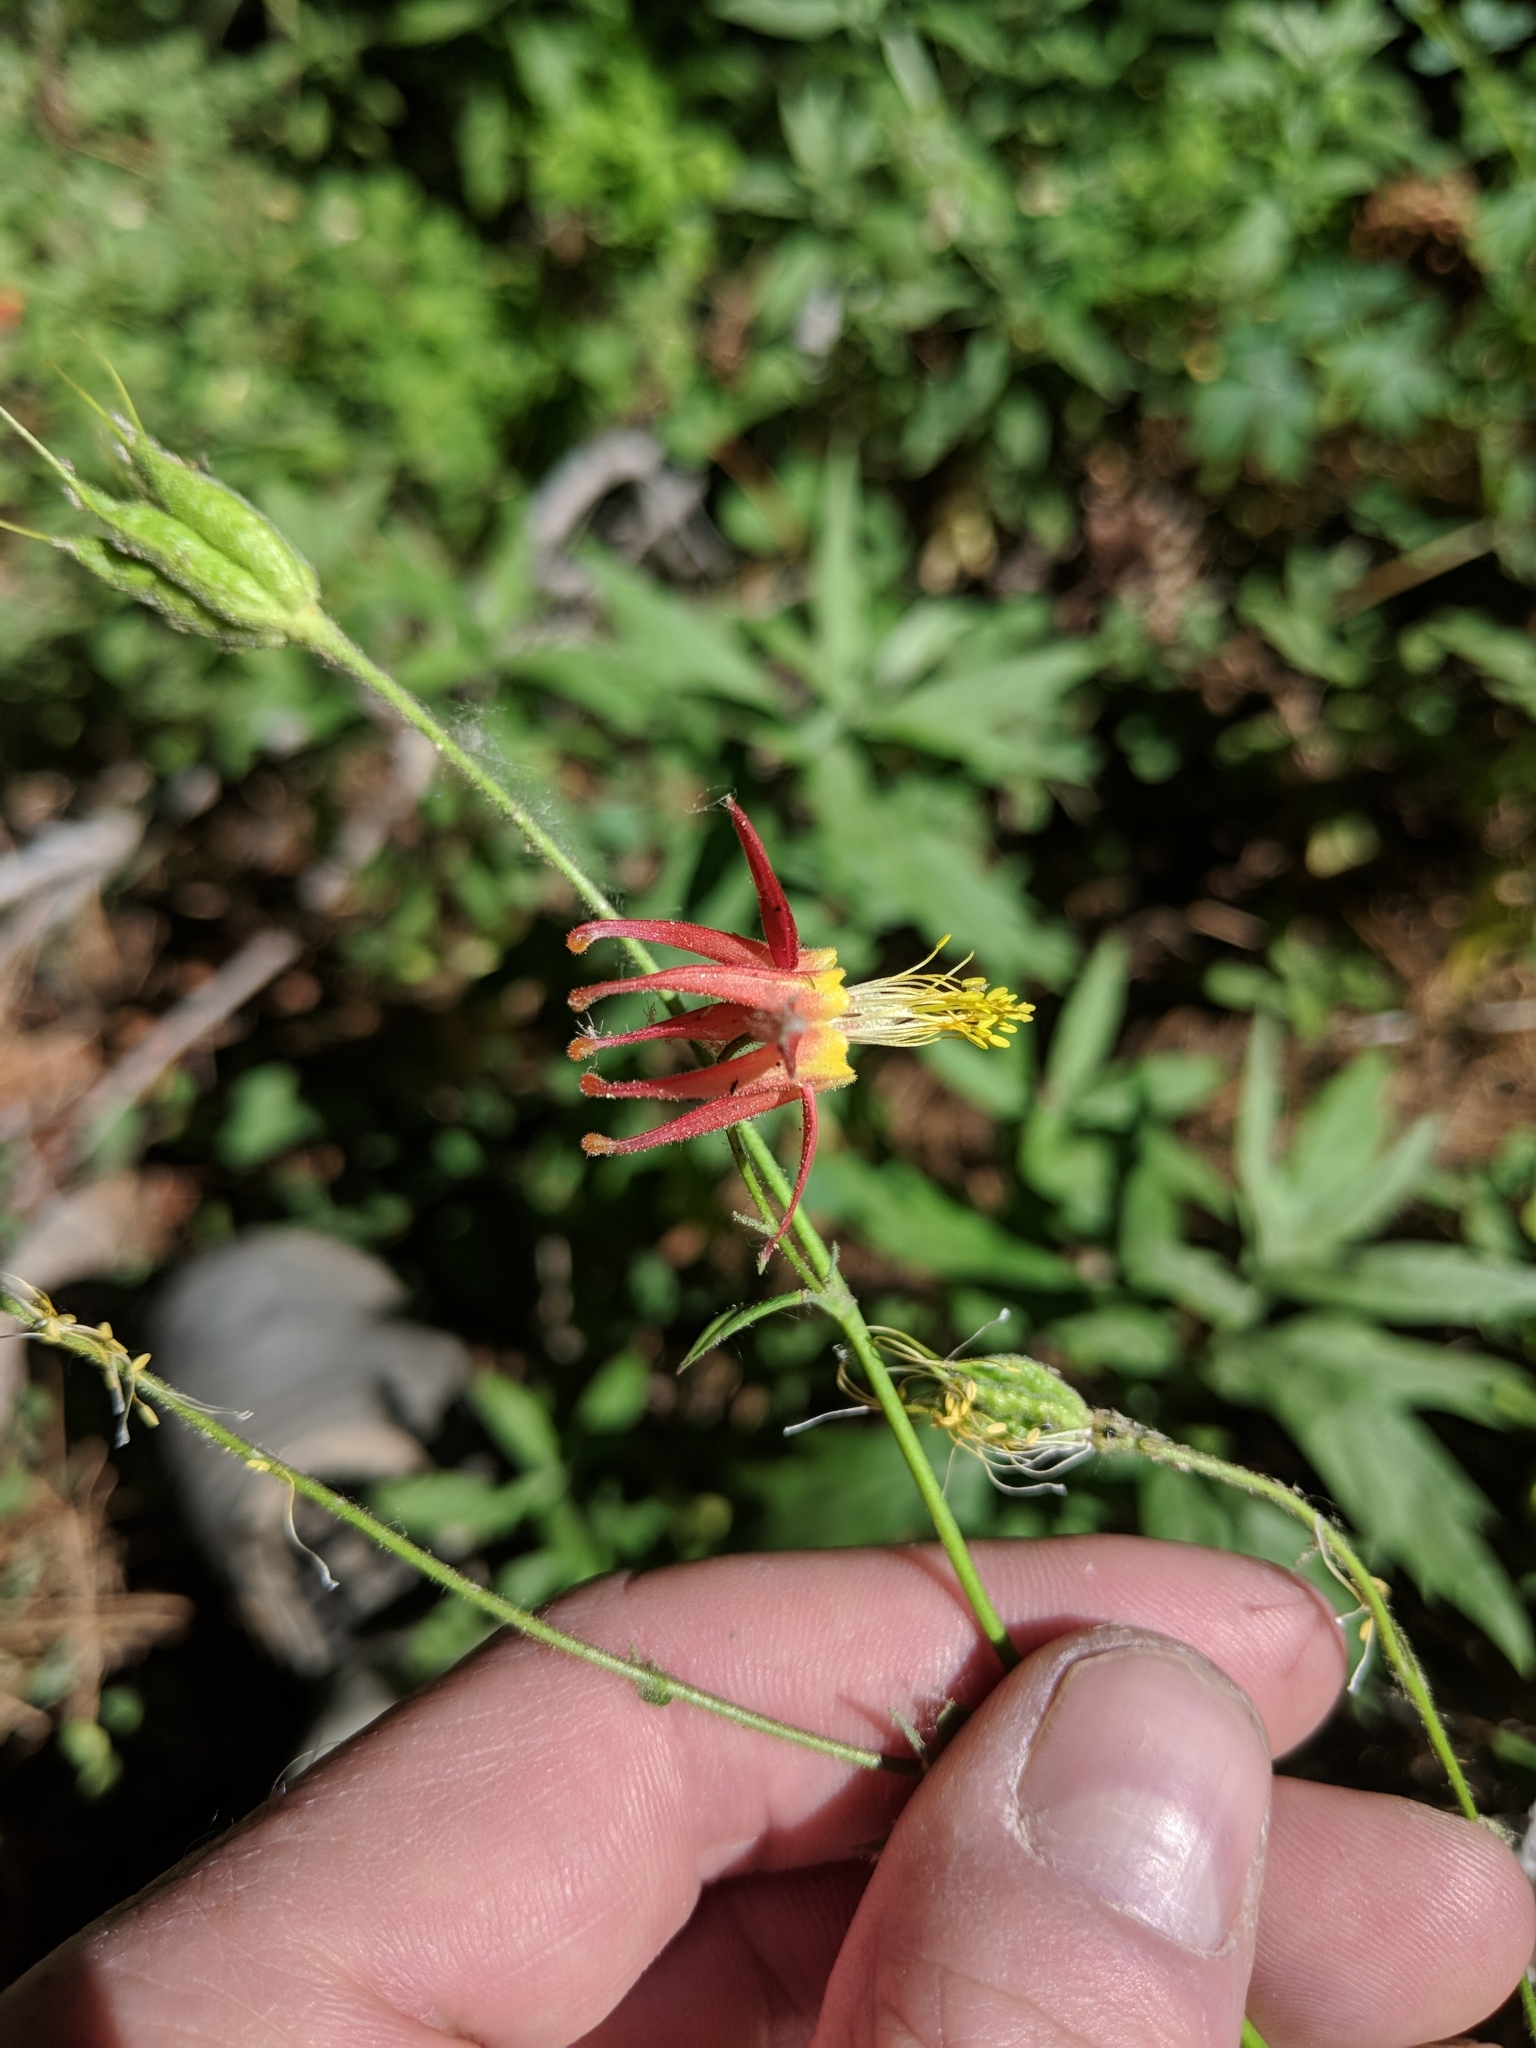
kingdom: Plantae
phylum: Tracheophyta
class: Magnoliopsida
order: Ranunculales
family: Ranunculaceae
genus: Aquilegia
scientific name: Aquilegia formosa
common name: Sitka columbine
